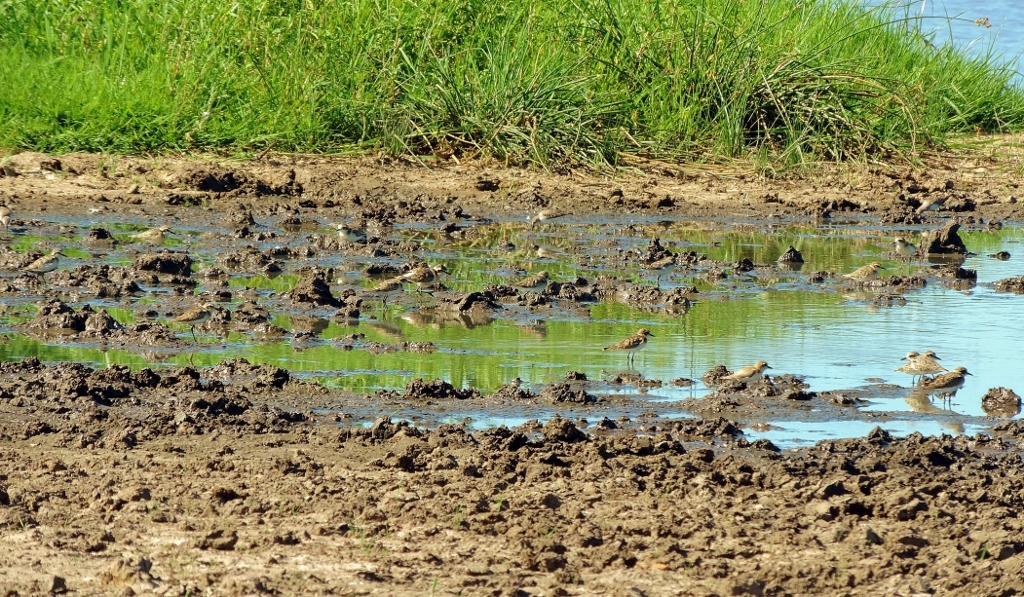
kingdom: Animalia
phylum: Chordata
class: Aves
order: Charadriiformes
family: Charadriidae
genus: Anarhynchus
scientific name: Anarhynchus
